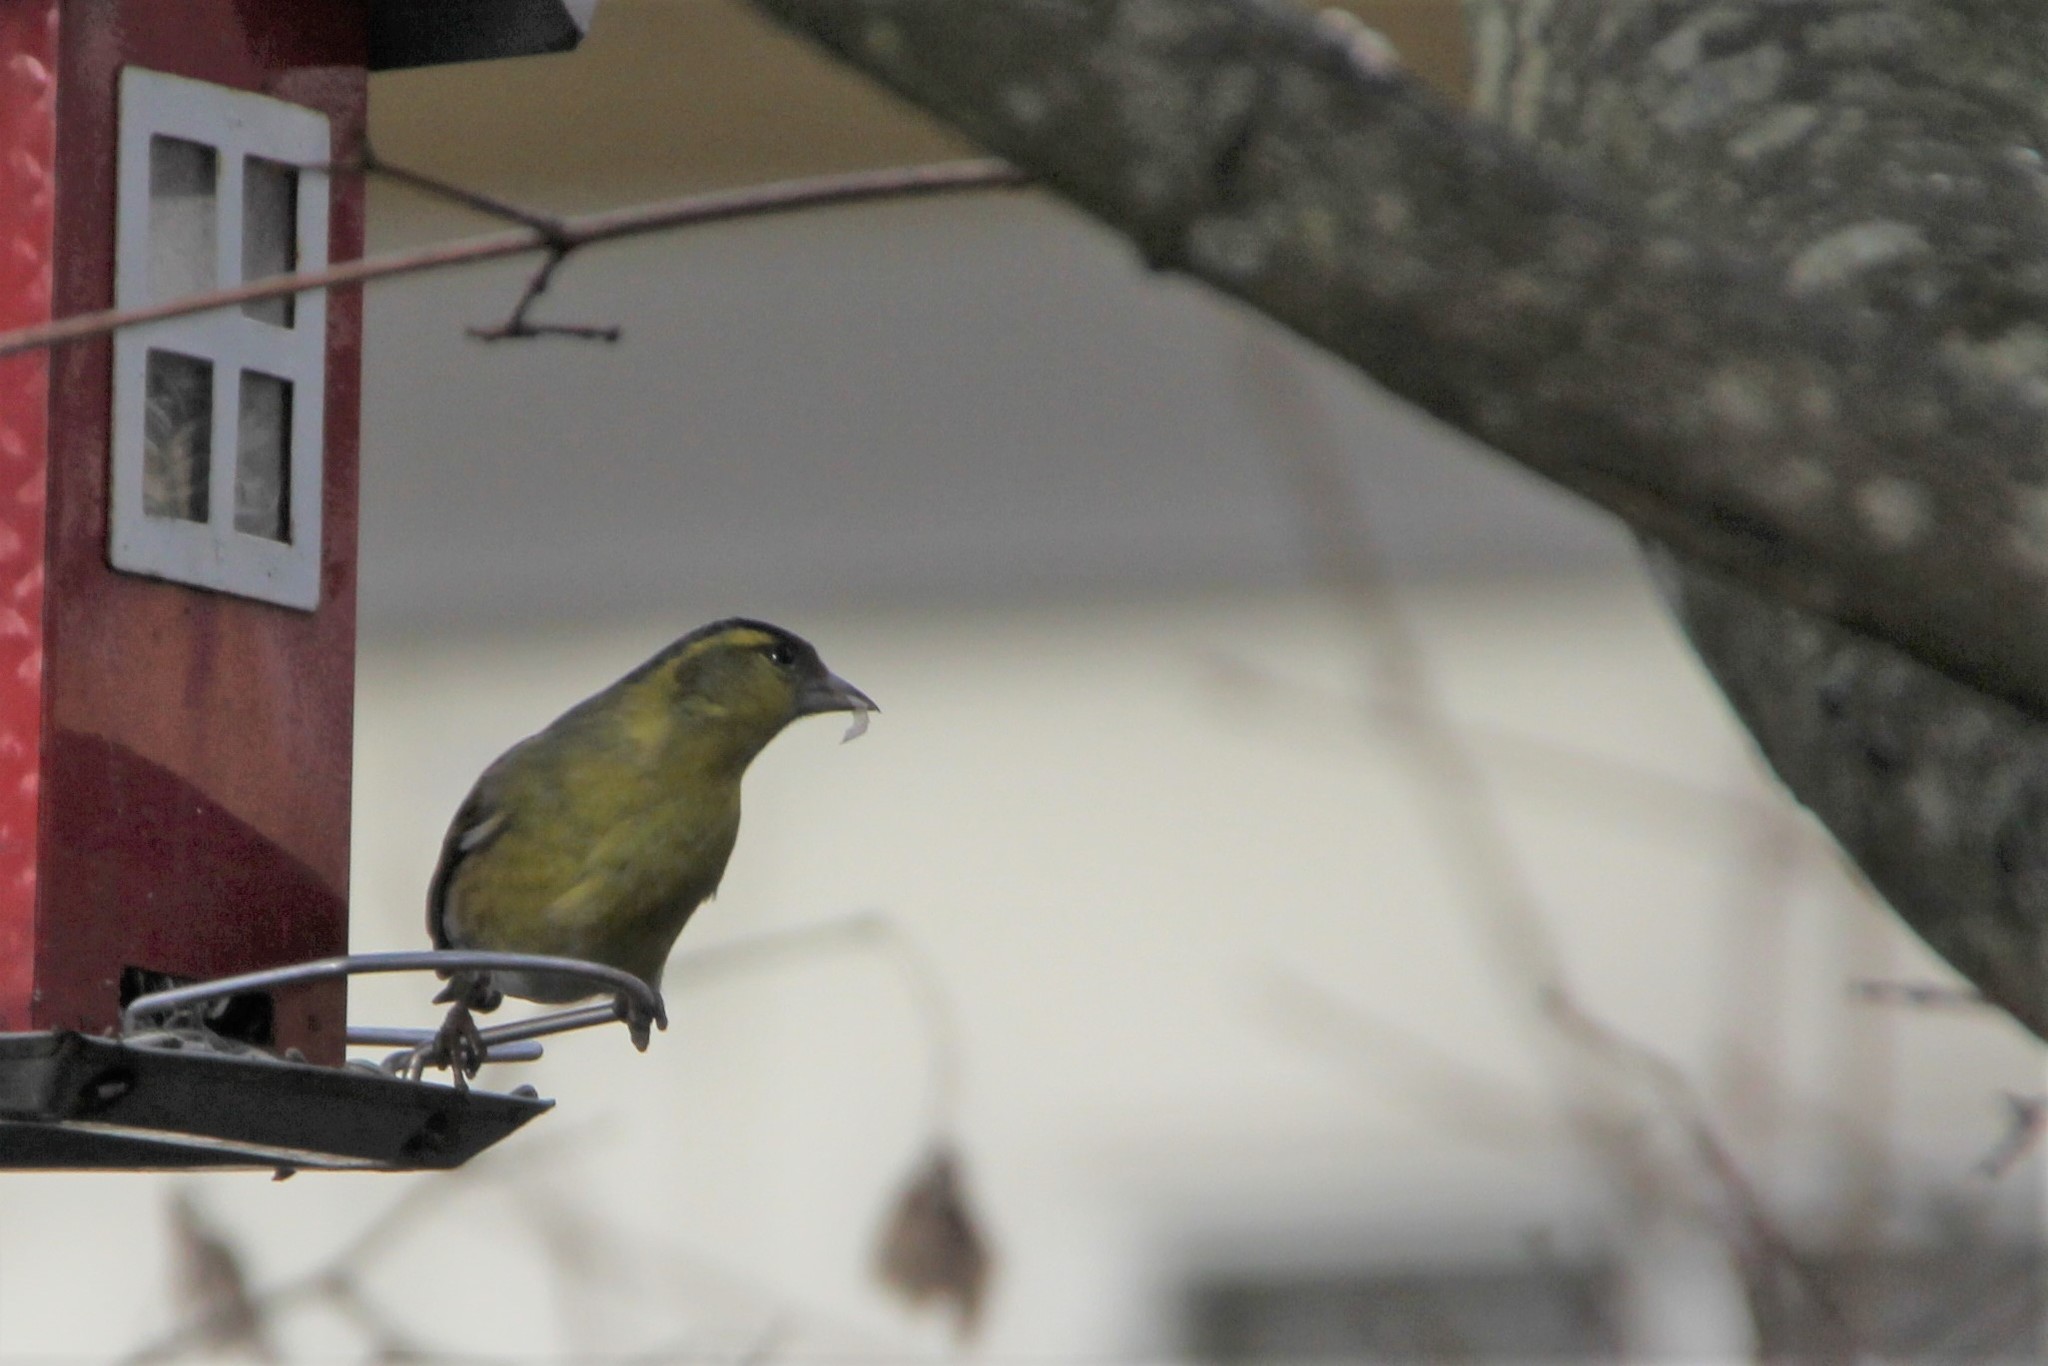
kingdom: Animalia
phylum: Chordata
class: Aves
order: Passeriformes
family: Fringillidae
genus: Spinus
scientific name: Spinus spinus
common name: Eurasian siskin
